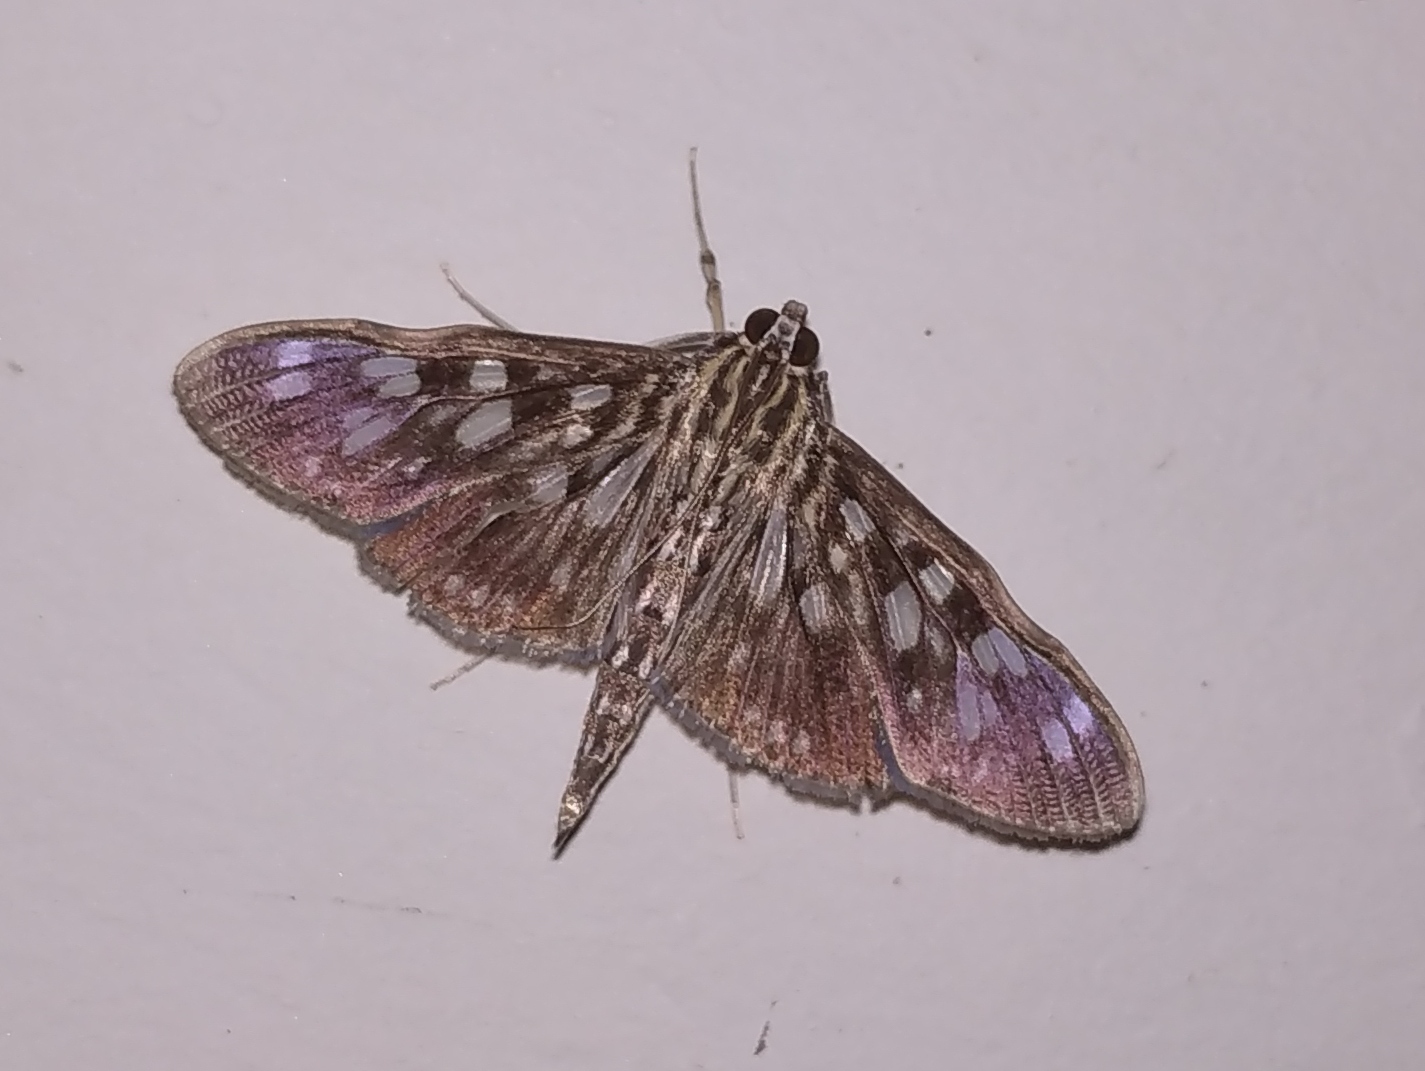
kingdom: Animalia
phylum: Arthropoda
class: Insecta
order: Lepidoptera
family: Crambidae
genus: Pygospila
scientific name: Pygospila costiflexalis
